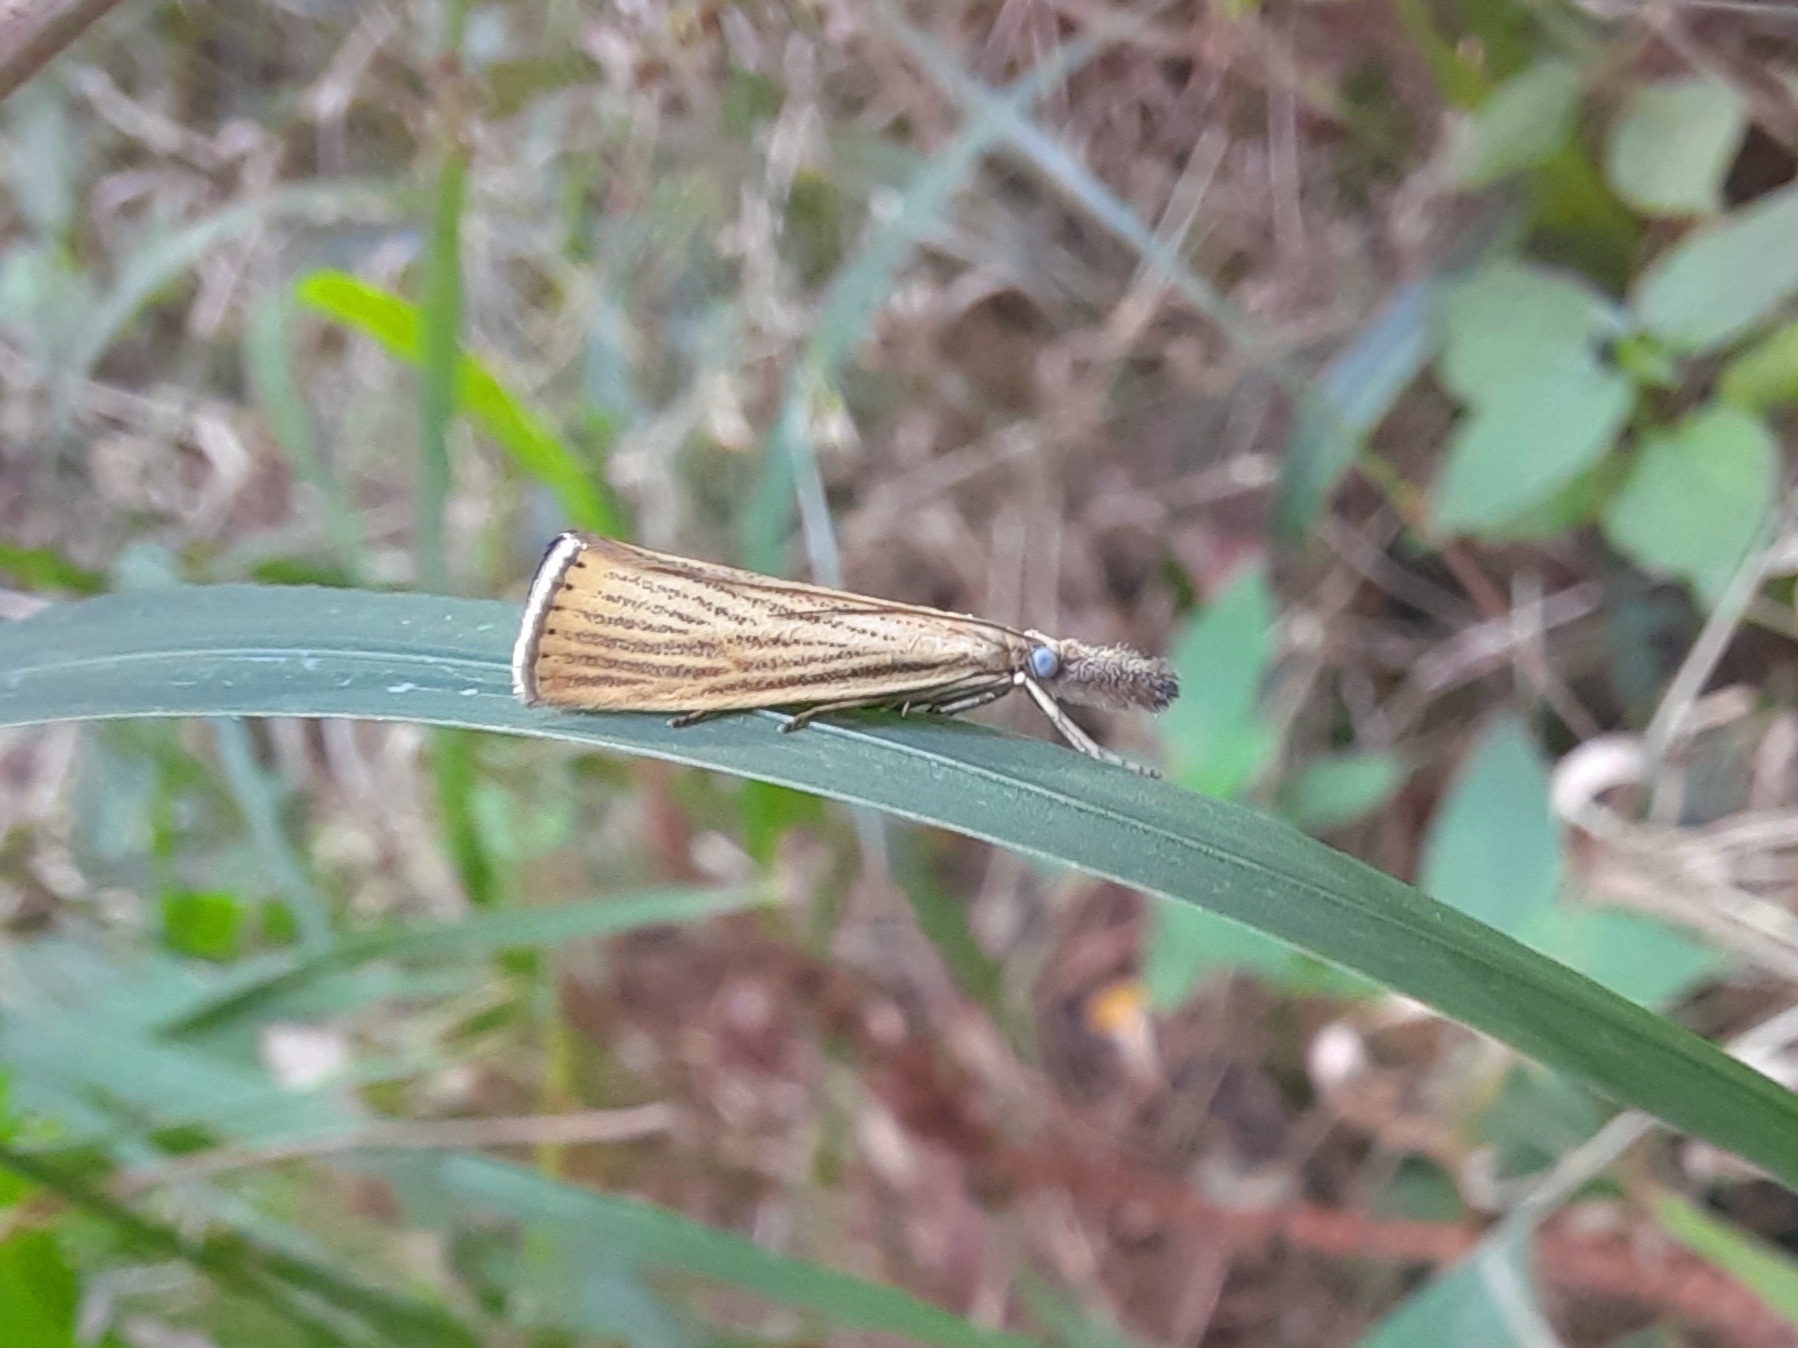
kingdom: Animalia
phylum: Arthropoda
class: Insecta
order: Lepidoptera
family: Crambidae
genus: Agriphila
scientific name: Agriphila straminella
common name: Straw grass-veneer
